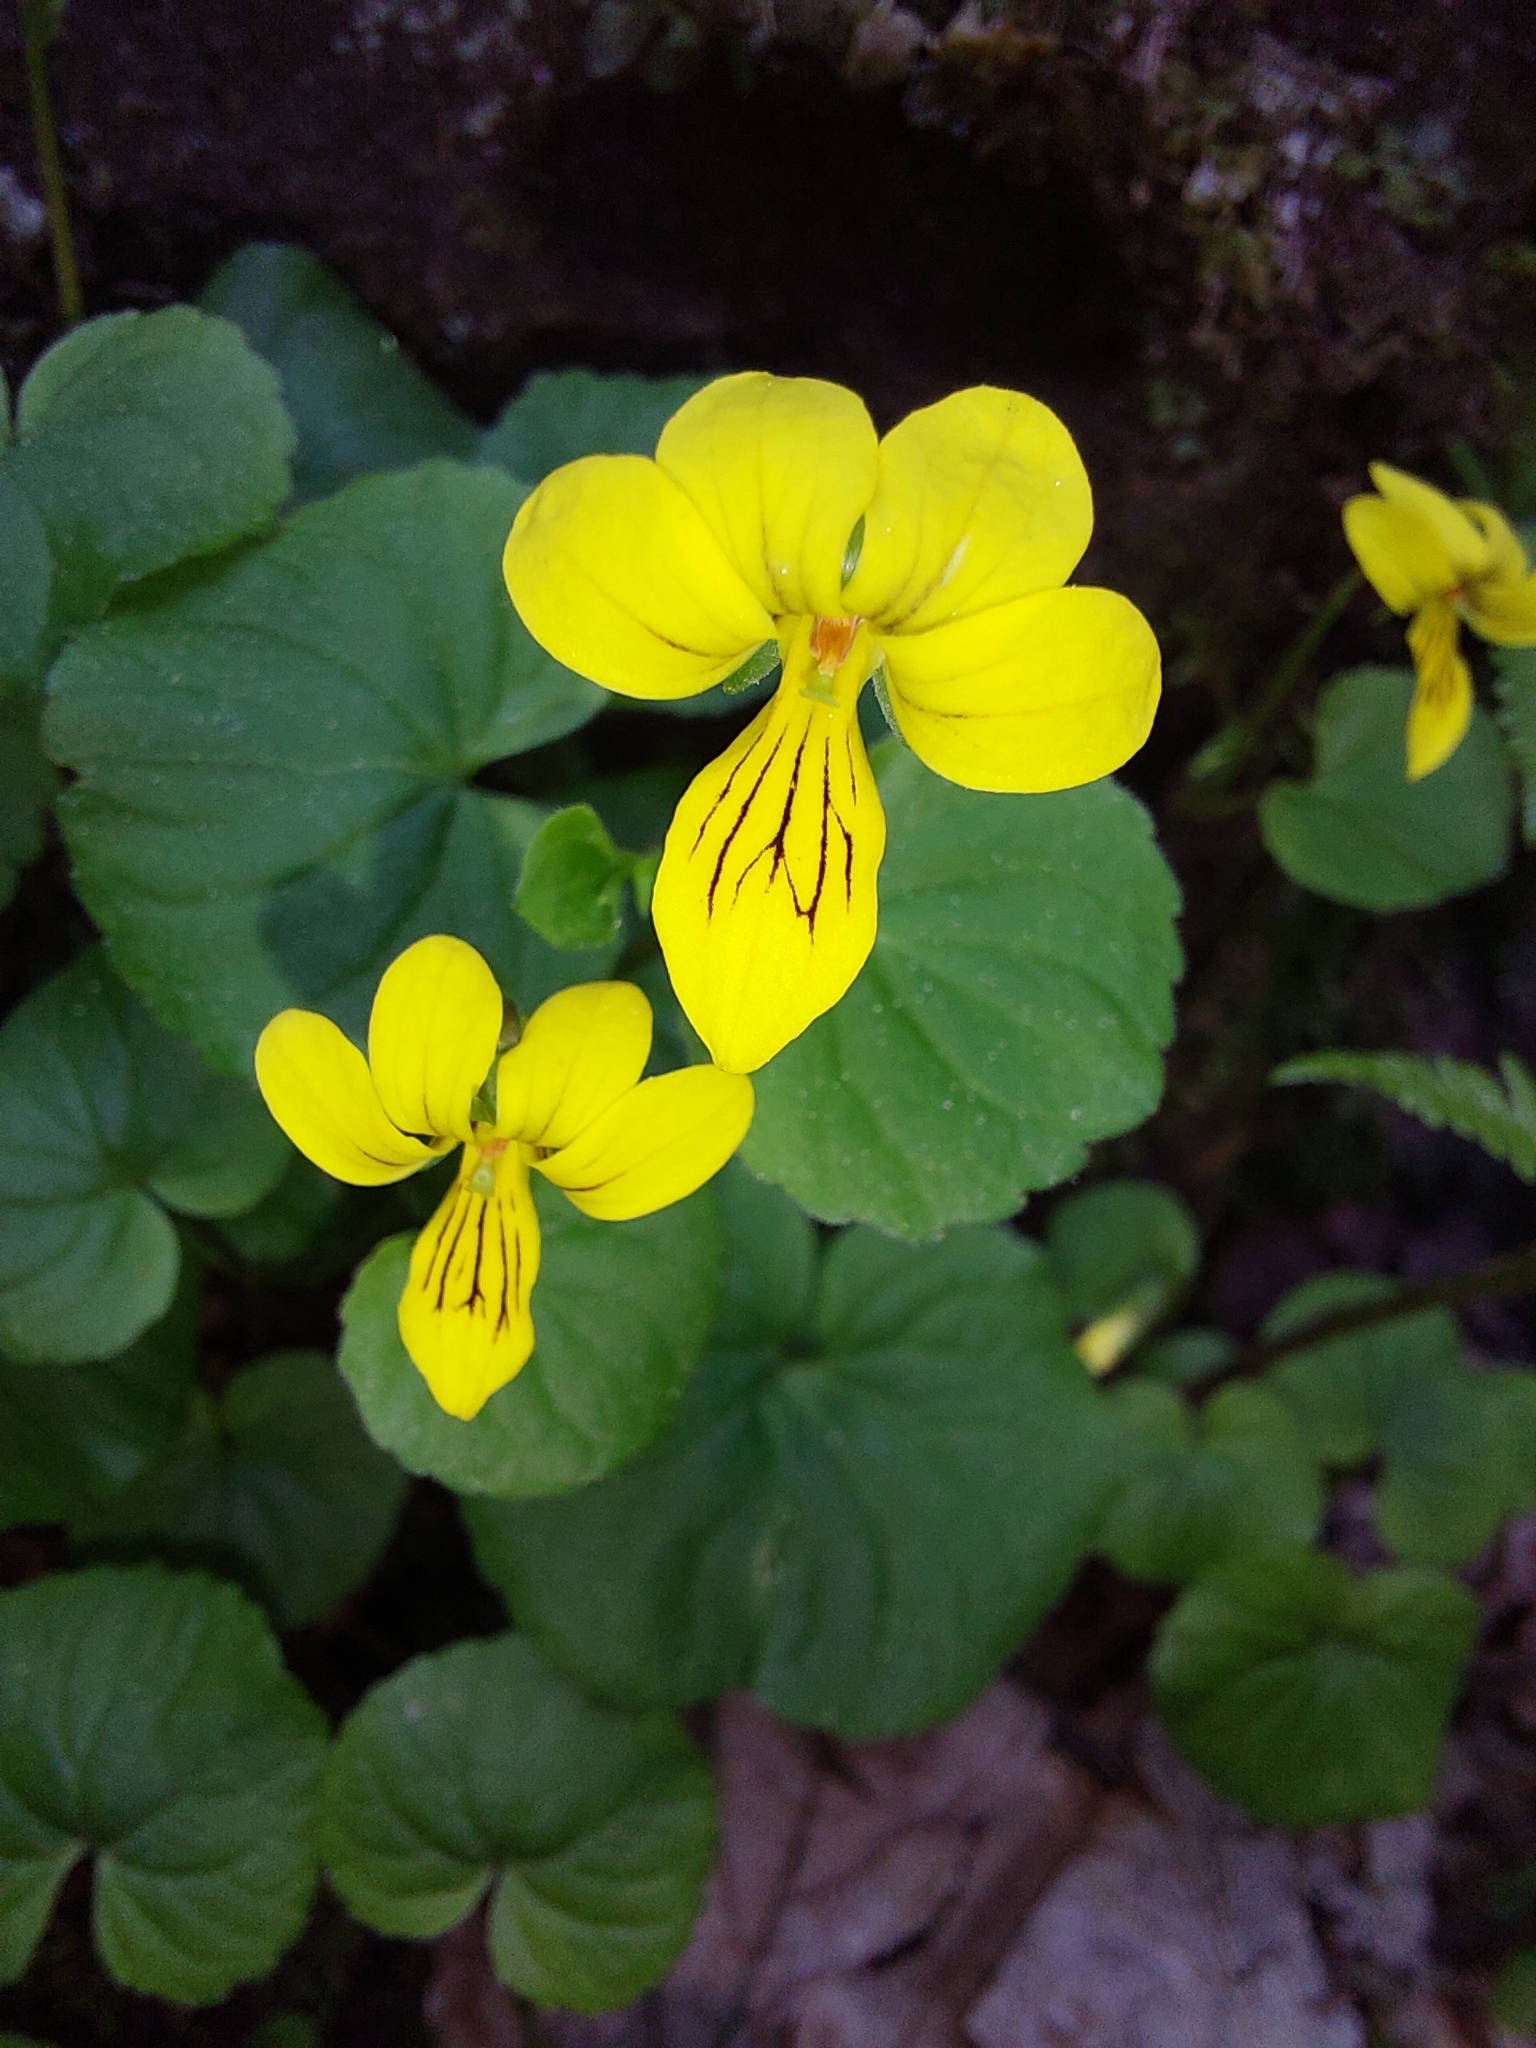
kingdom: Plantae
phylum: Tracheophyta
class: Magnoliopsida
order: Malpighiales
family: Violaceae
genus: Viola
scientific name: Viola biflora
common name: Alpine yellow violet
